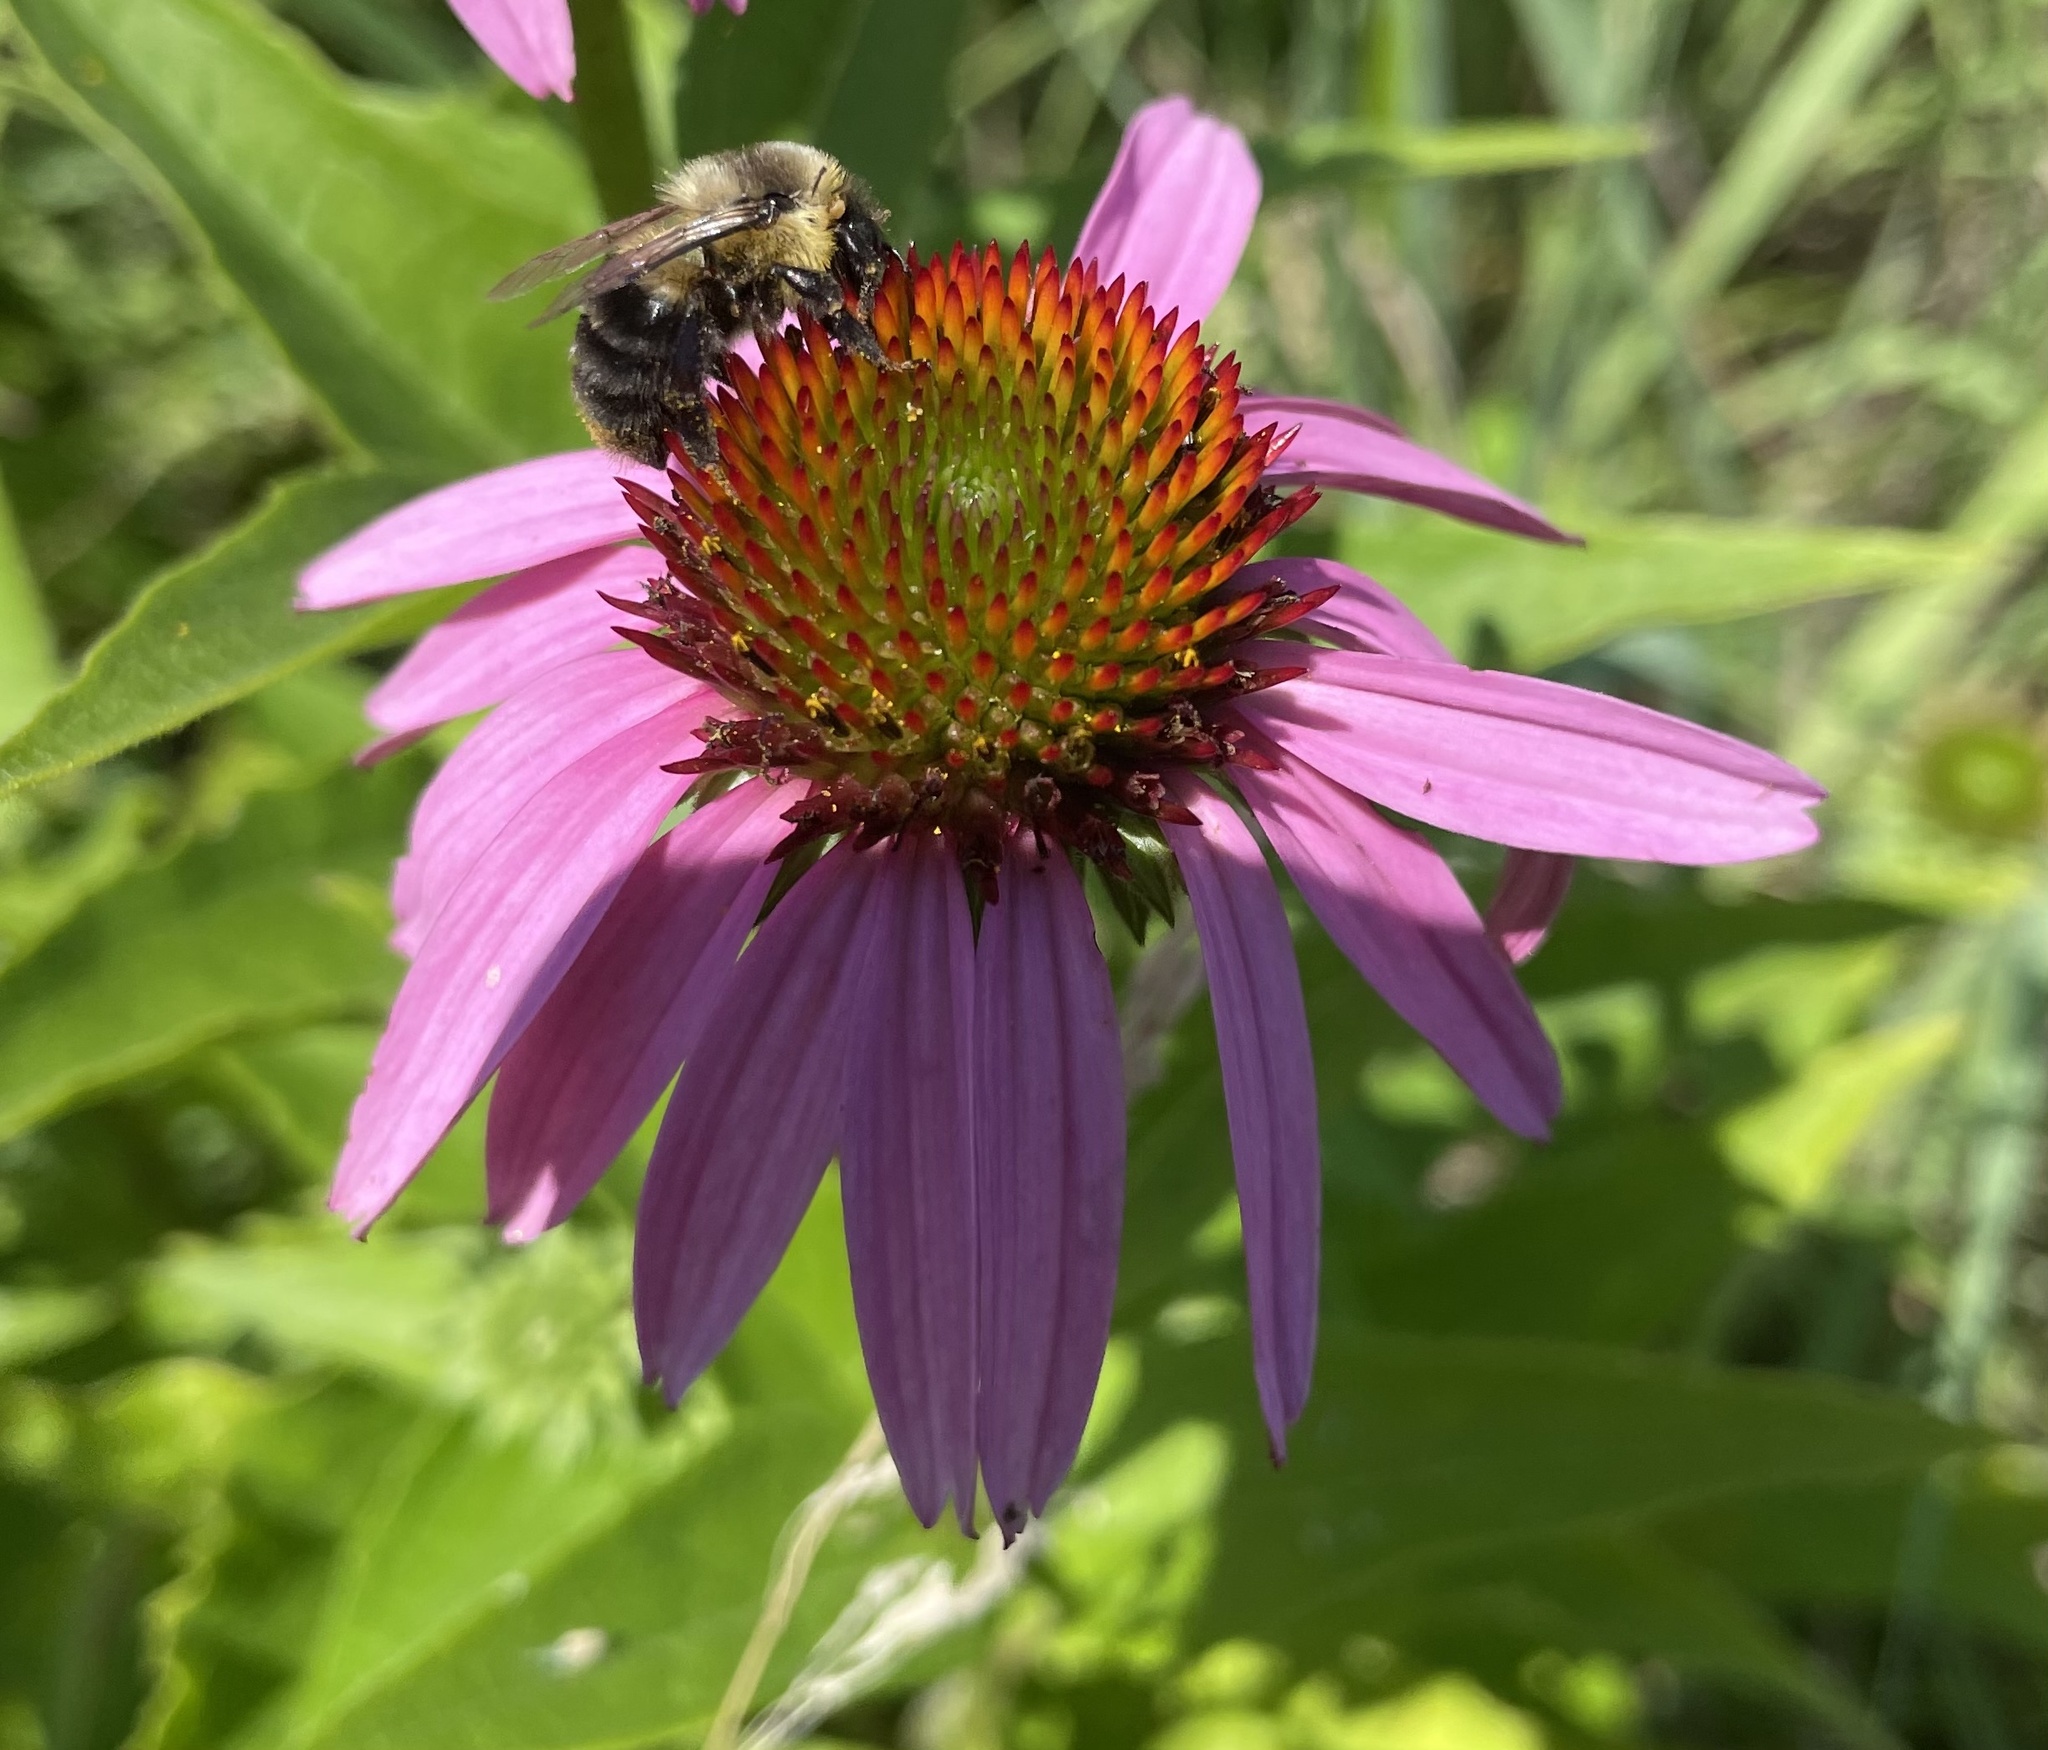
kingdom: Animalia
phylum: Arthropoda
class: Insecta
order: Hymenoptera
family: Apidae
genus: Bombus
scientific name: Bombus impatiens
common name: Common eastern bumble bee
